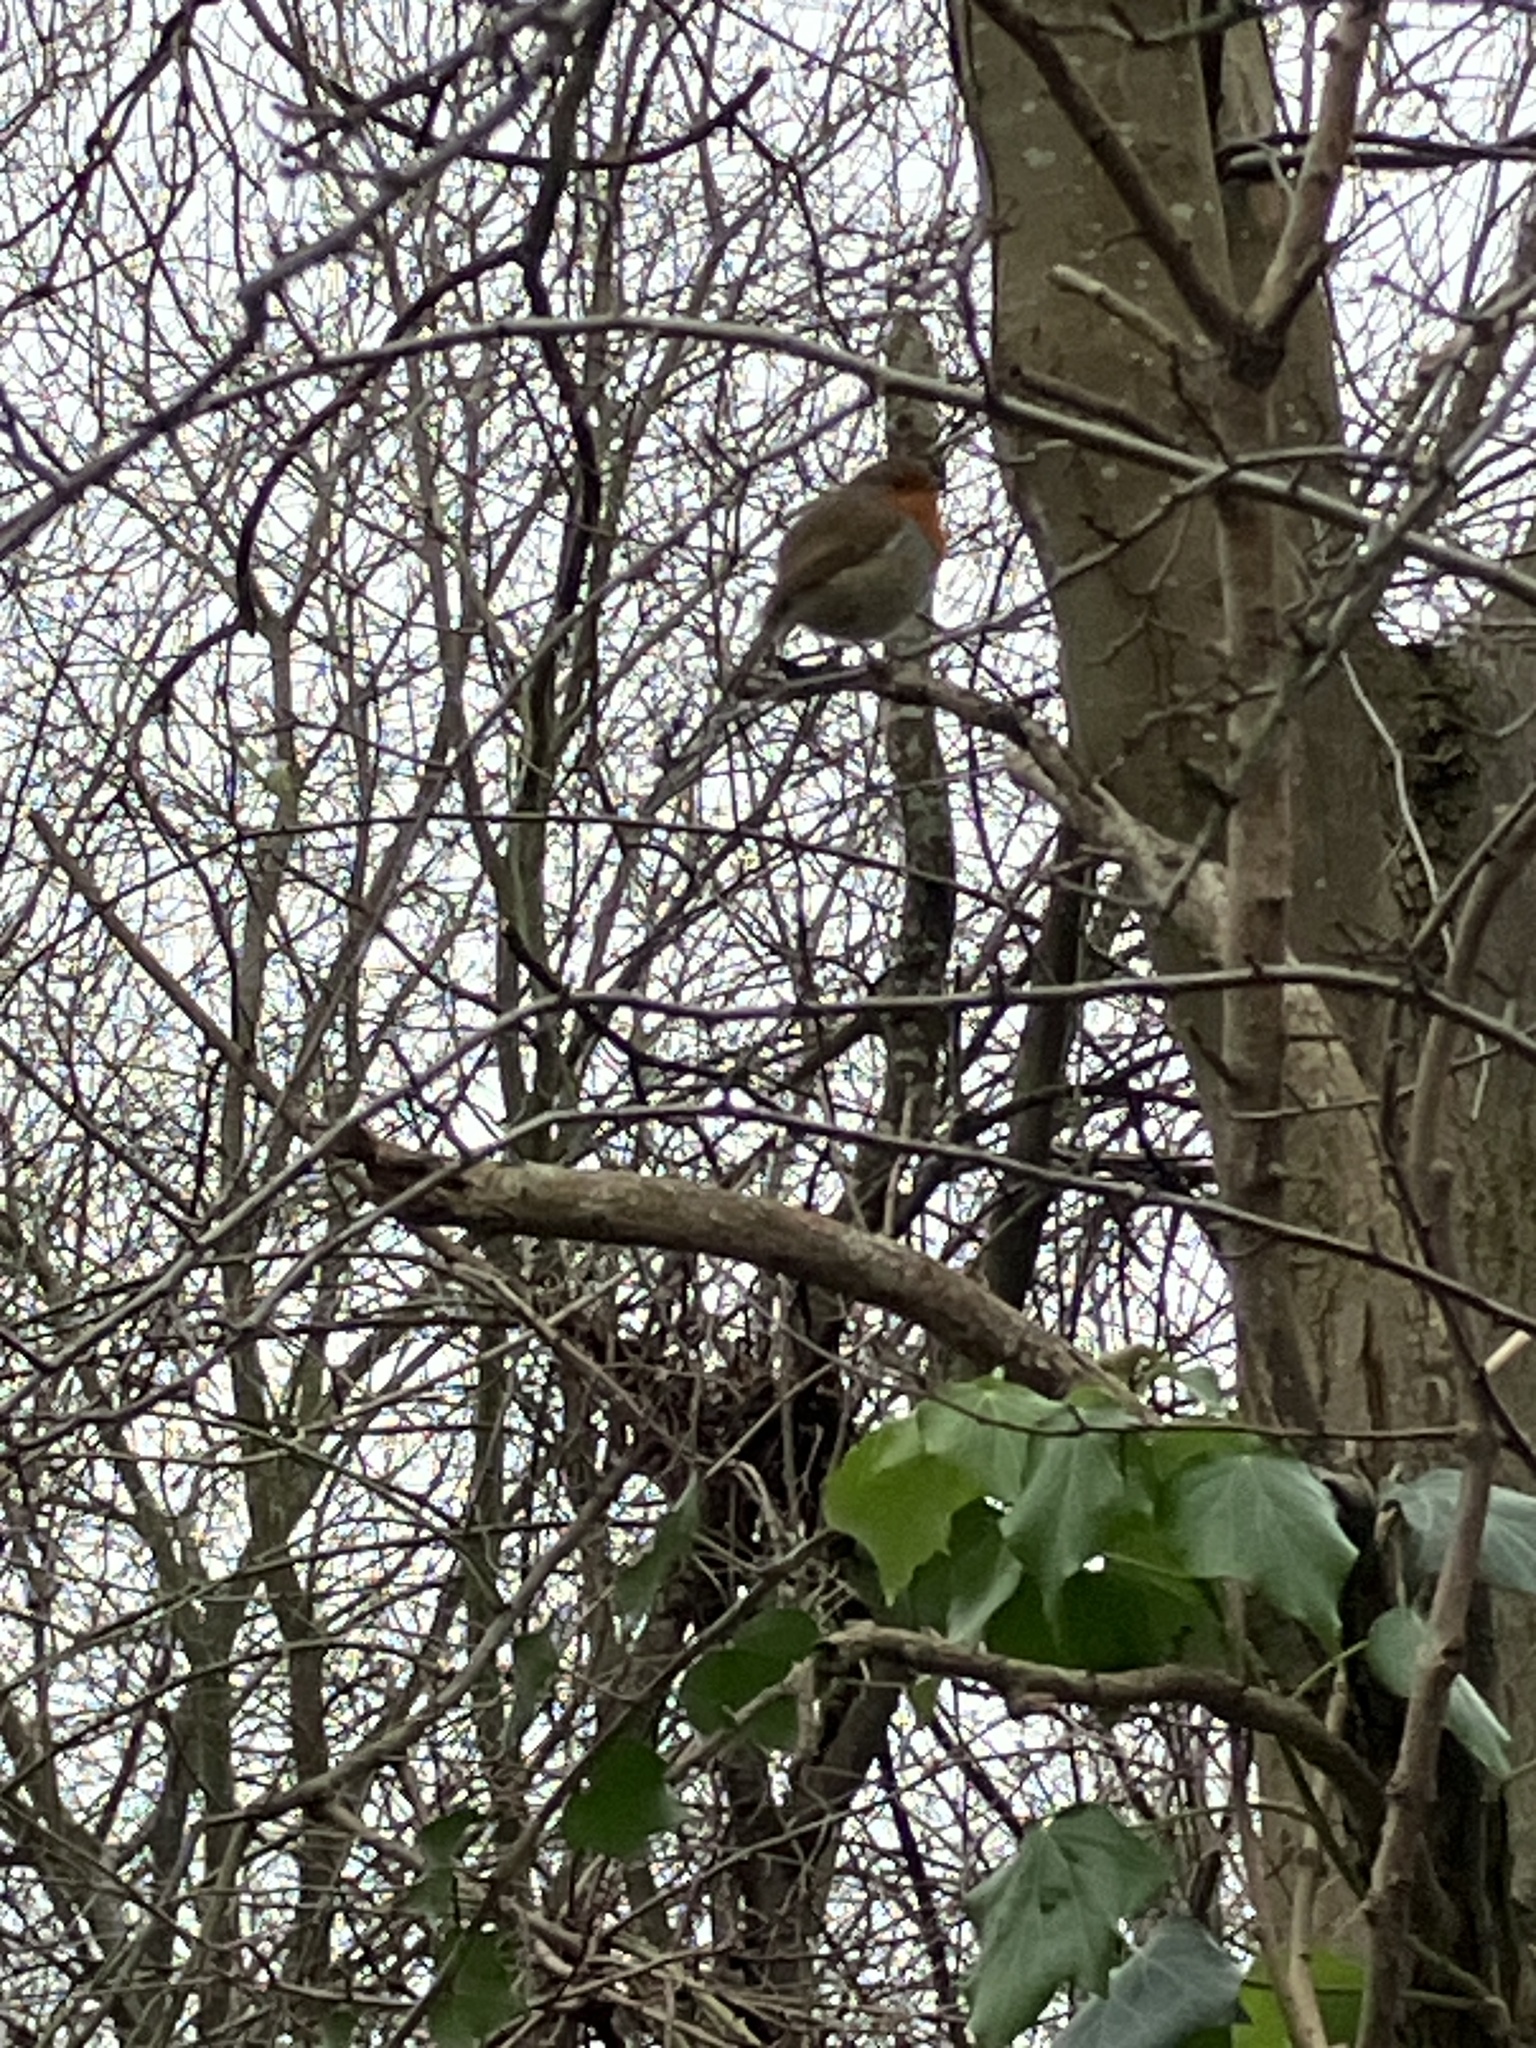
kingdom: Animalia
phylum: Chordata
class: Aves
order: Passeriformes
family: Muscicapidae
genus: Erithacus
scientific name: Erithacus rubecula
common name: European robin
